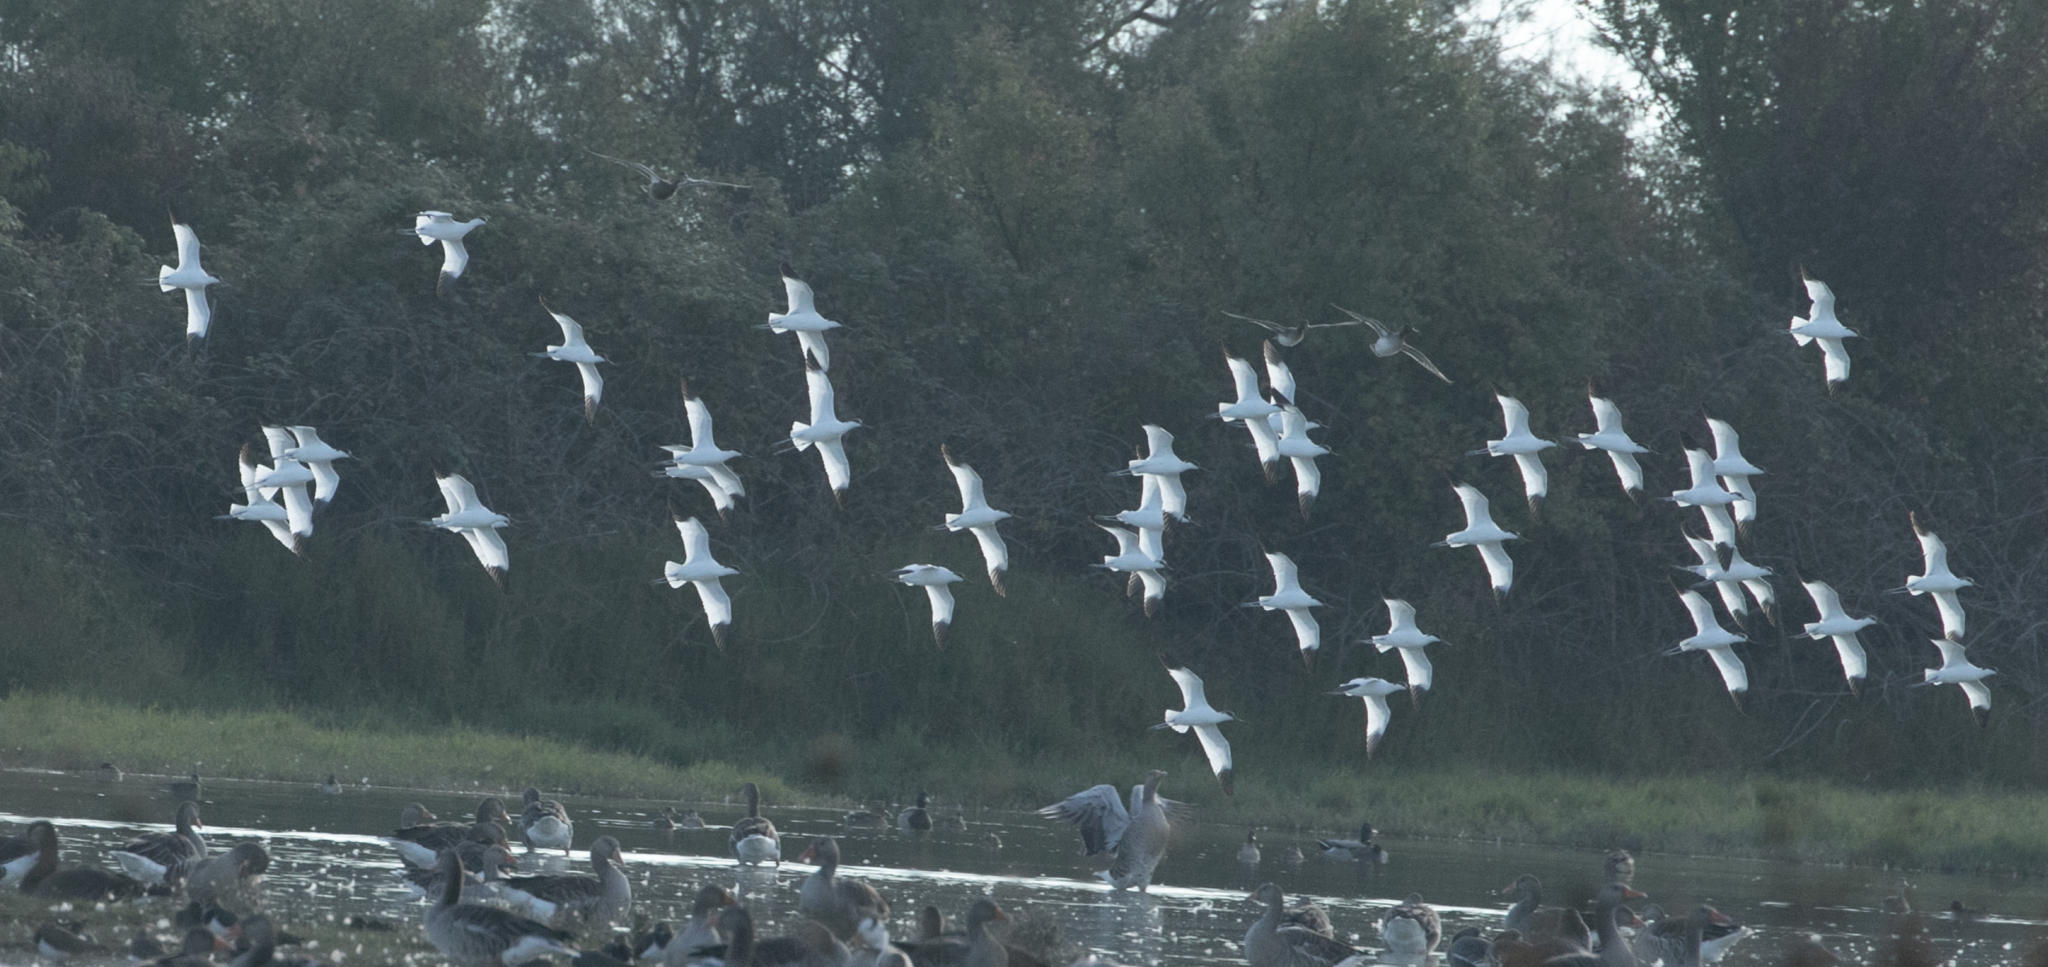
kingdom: Animalia
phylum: Chordata
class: Aves
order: Charadriiformes
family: Recurvirostridae
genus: Recurvirostra
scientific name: Recurvirostra avosetta
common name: Pied avocet
